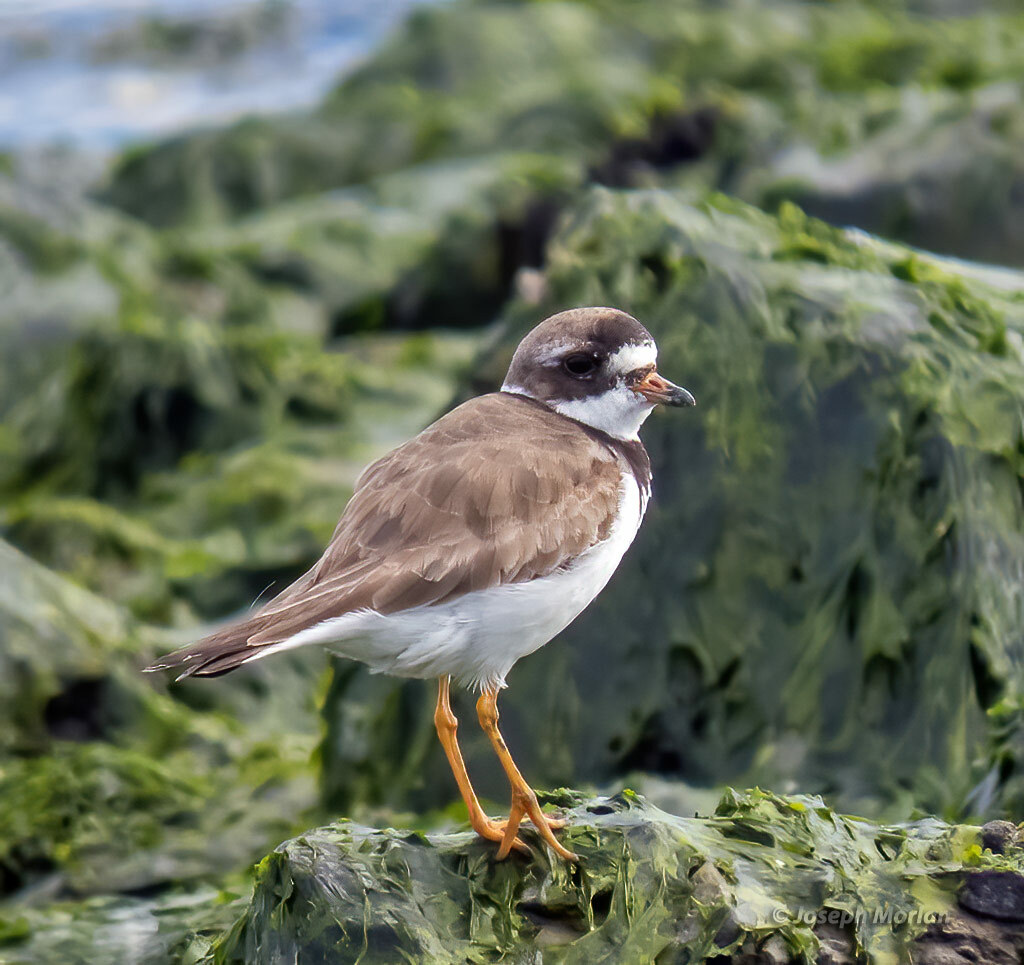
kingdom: Animalia
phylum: Chordata
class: Aves
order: Charadriiformes
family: Charadriidae
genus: Charadrius
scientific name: Charadrius semipalmatus
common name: Semipalmated plover
